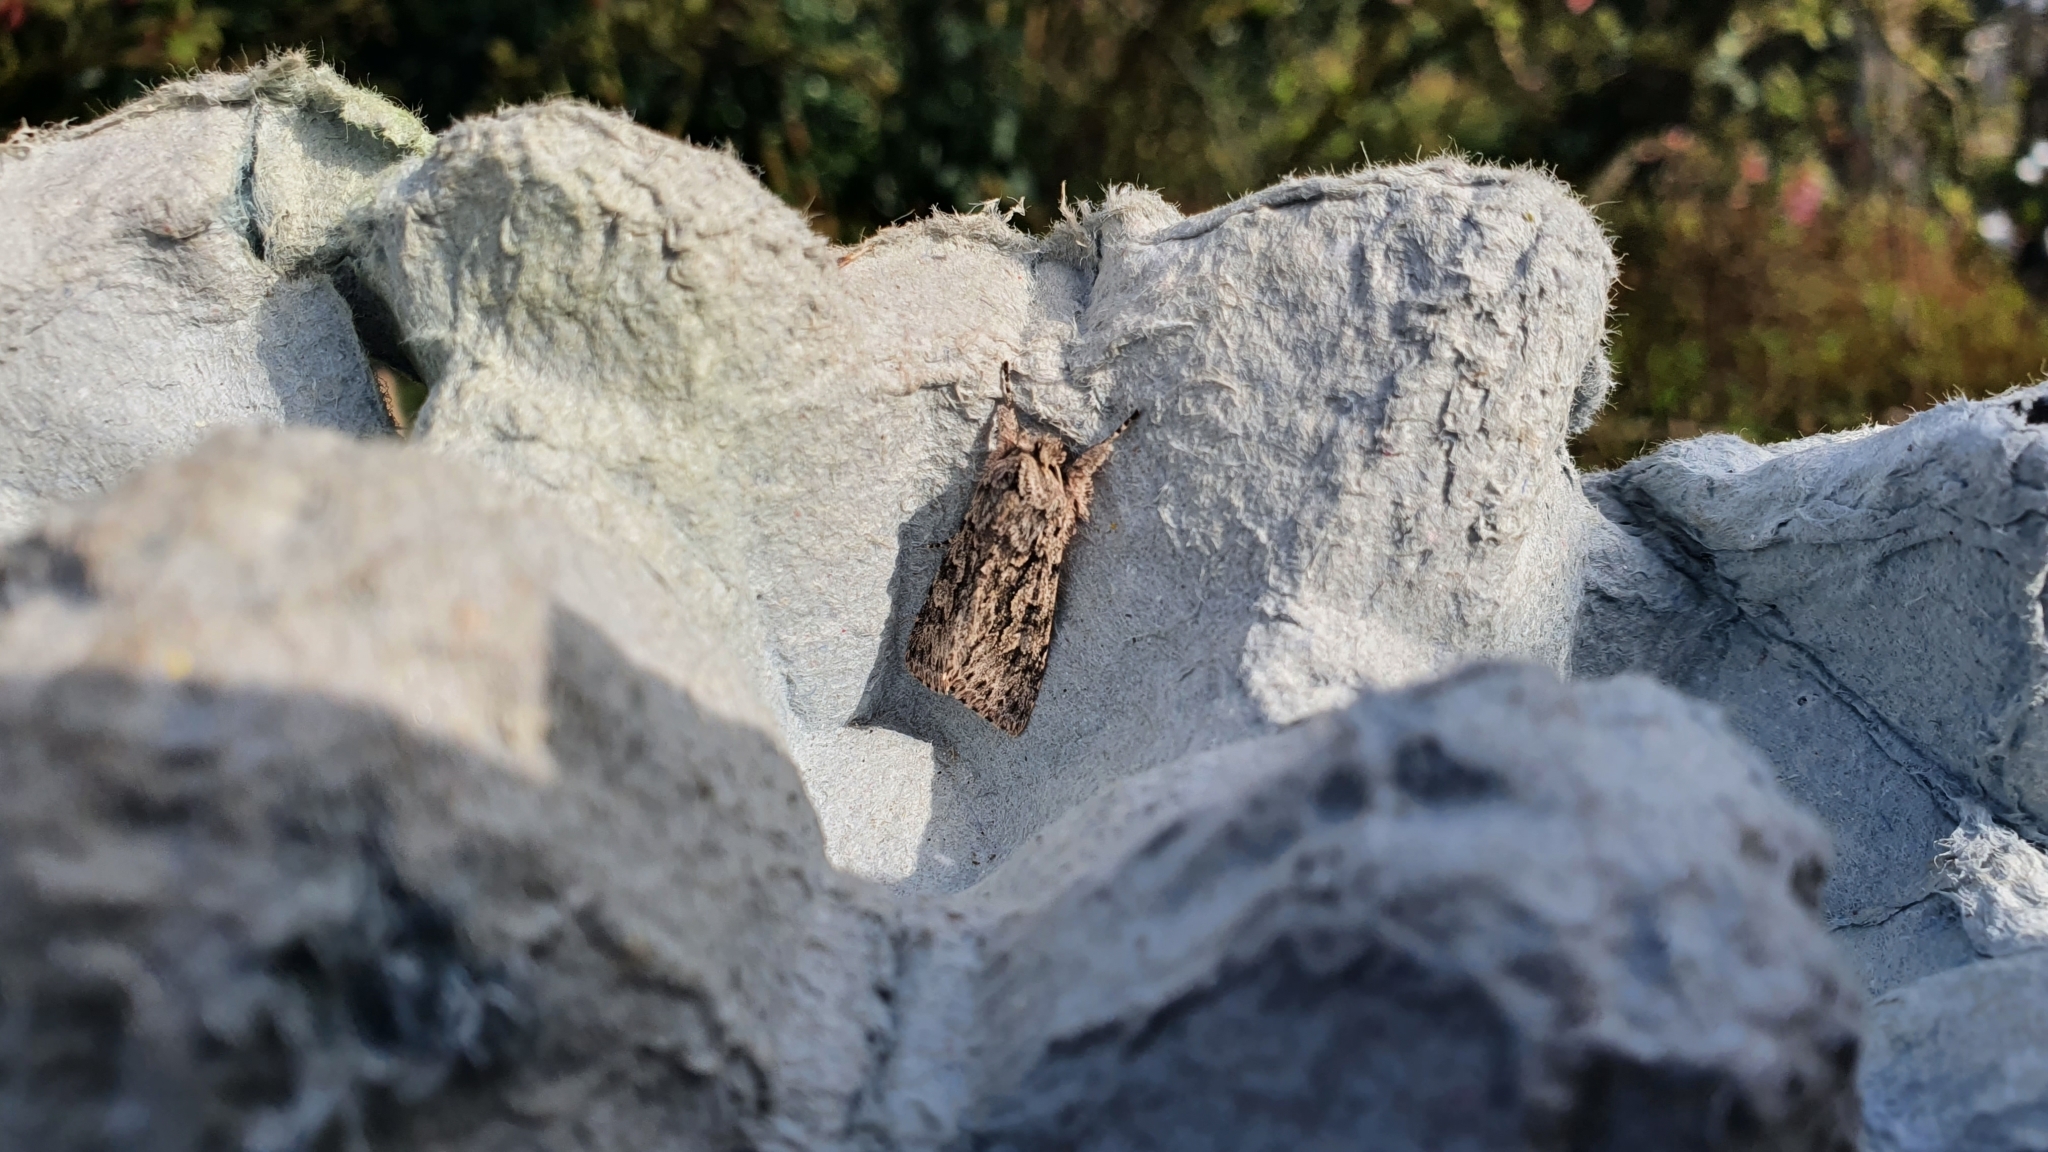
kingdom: Animalia
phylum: Arthropoda
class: Insecta
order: Lepidoptera
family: Noctuidae
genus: Xylocampa
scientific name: Xylocampa areola
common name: Early grey
